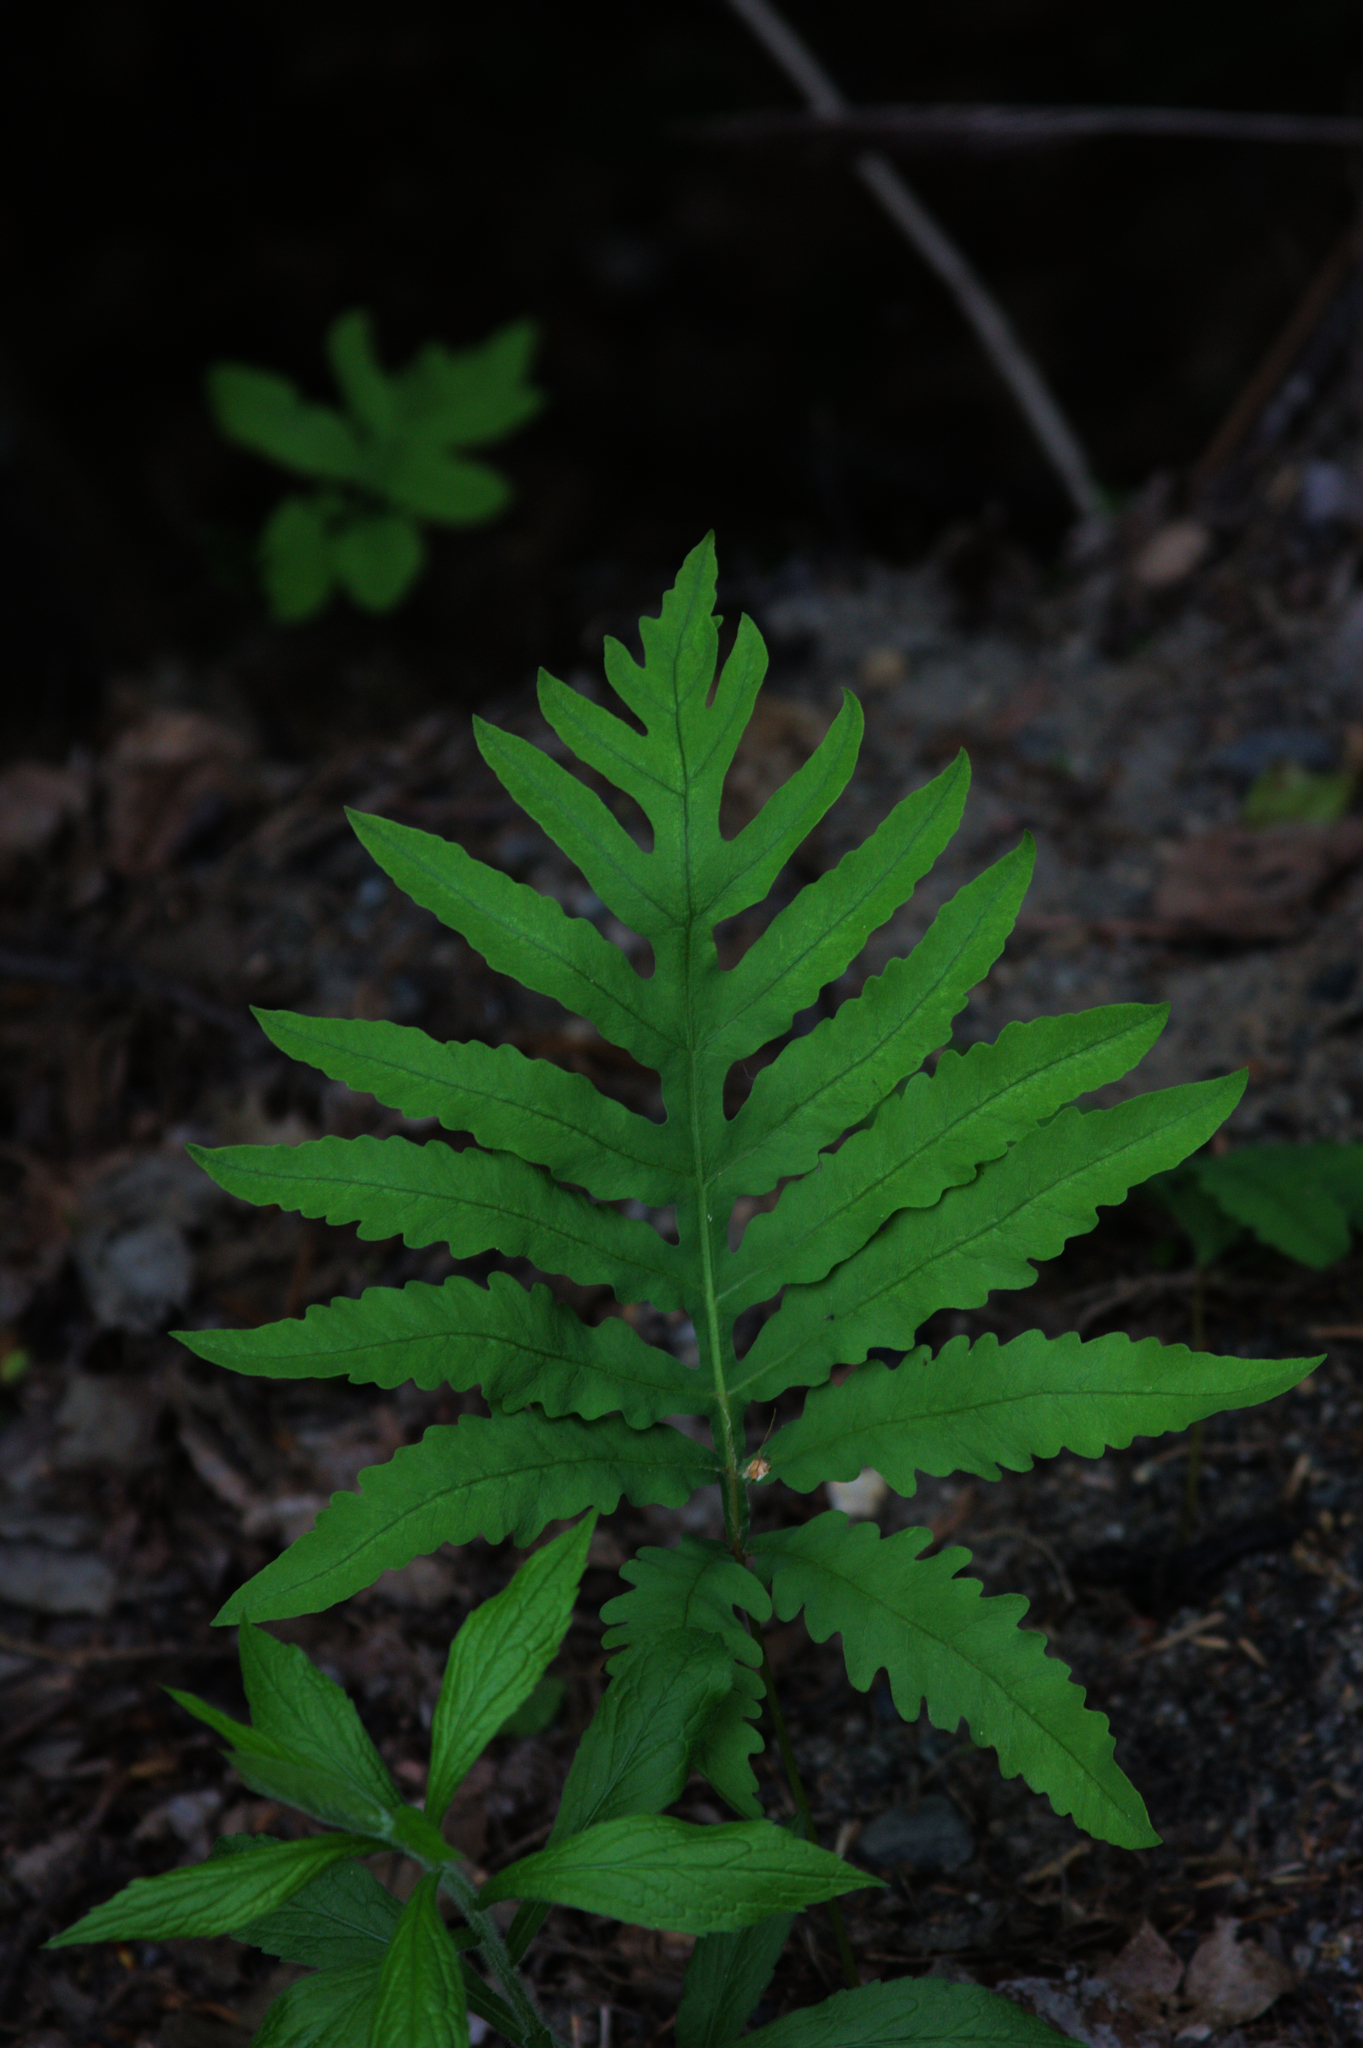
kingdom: Plantae
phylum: Tracheophyta
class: Polypodiopsida
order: Polypodiales
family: Onocleaceae
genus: Onoclea
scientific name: Onoclea sensibilis
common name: Sensitive fern
